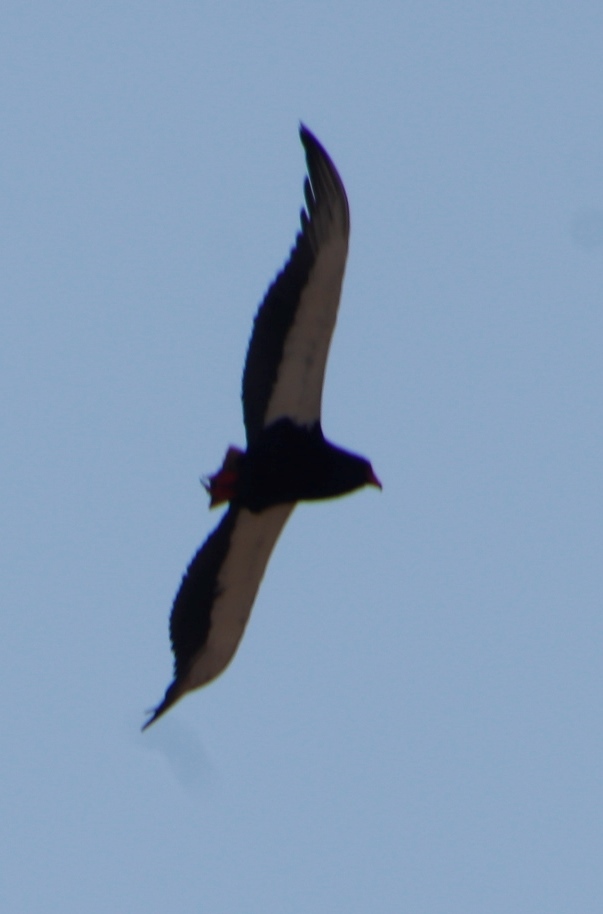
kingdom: Animalia
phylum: Chordata
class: Aves
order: Accipitriformes
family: Accipitridae
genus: Terathopius
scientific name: Terathopius ecaudatus
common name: Bateleur
